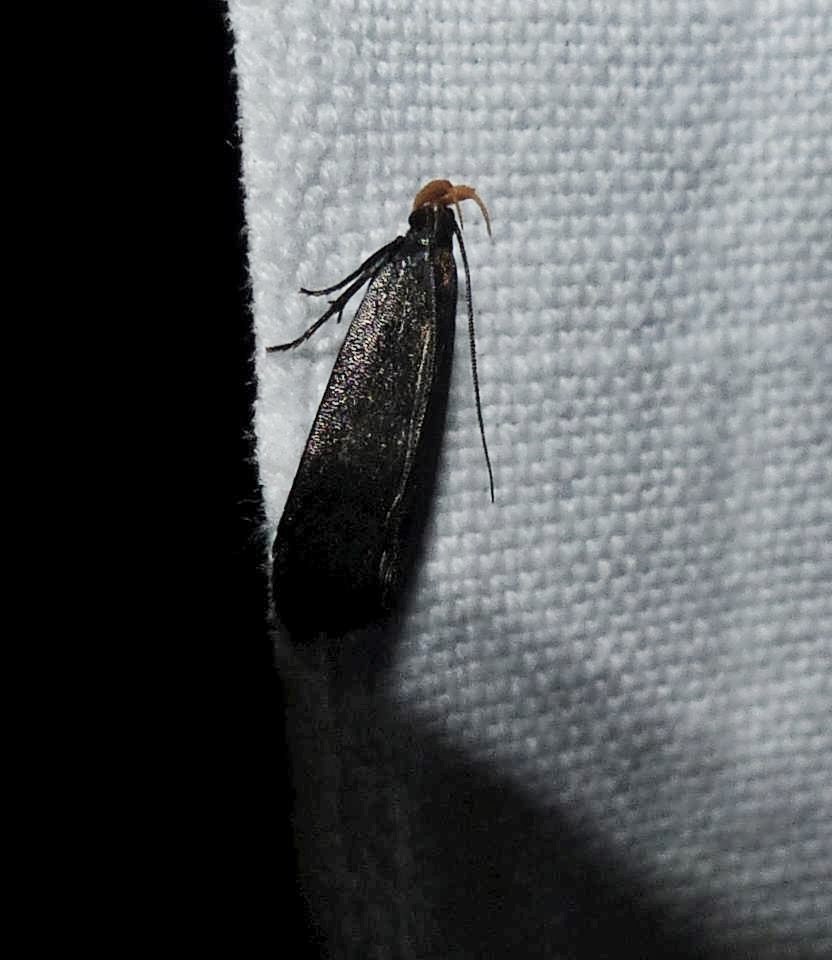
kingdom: Animalia
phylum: Arthropoda
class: Insecta
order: Lepidoptera
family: Gelechiidae
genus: Dichomeris
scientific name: Dichomeris purpureofusca
